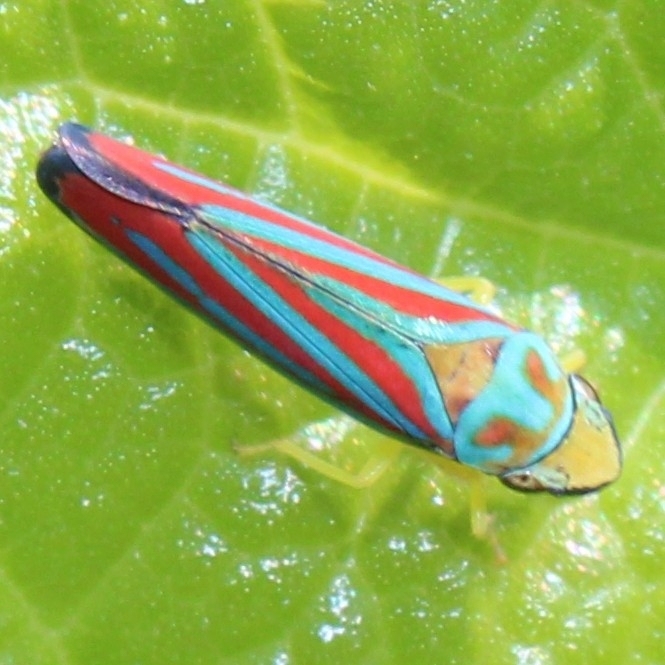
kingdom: Animalia
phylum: Arthropoda
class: Insecta
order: Hemiptera
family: Cicadellidae
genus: Graphocephala
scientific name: Graphocephala coccinea
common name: Candy-striped leafhopper
